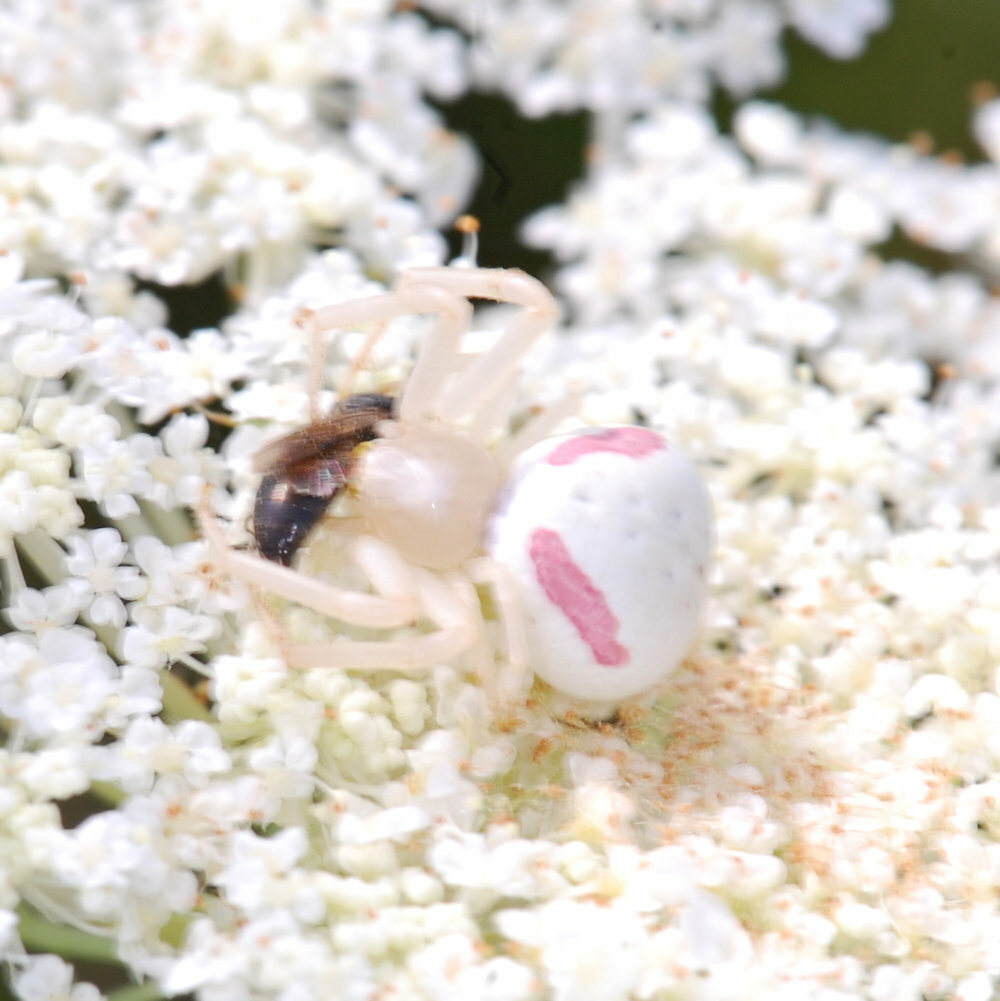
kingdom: Animalia
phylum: Arthropoda
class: Arachnida
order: Araneae
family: Thomisidae
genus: Misumena
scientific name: Misumena vatia
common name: Goldenrod crab spider
